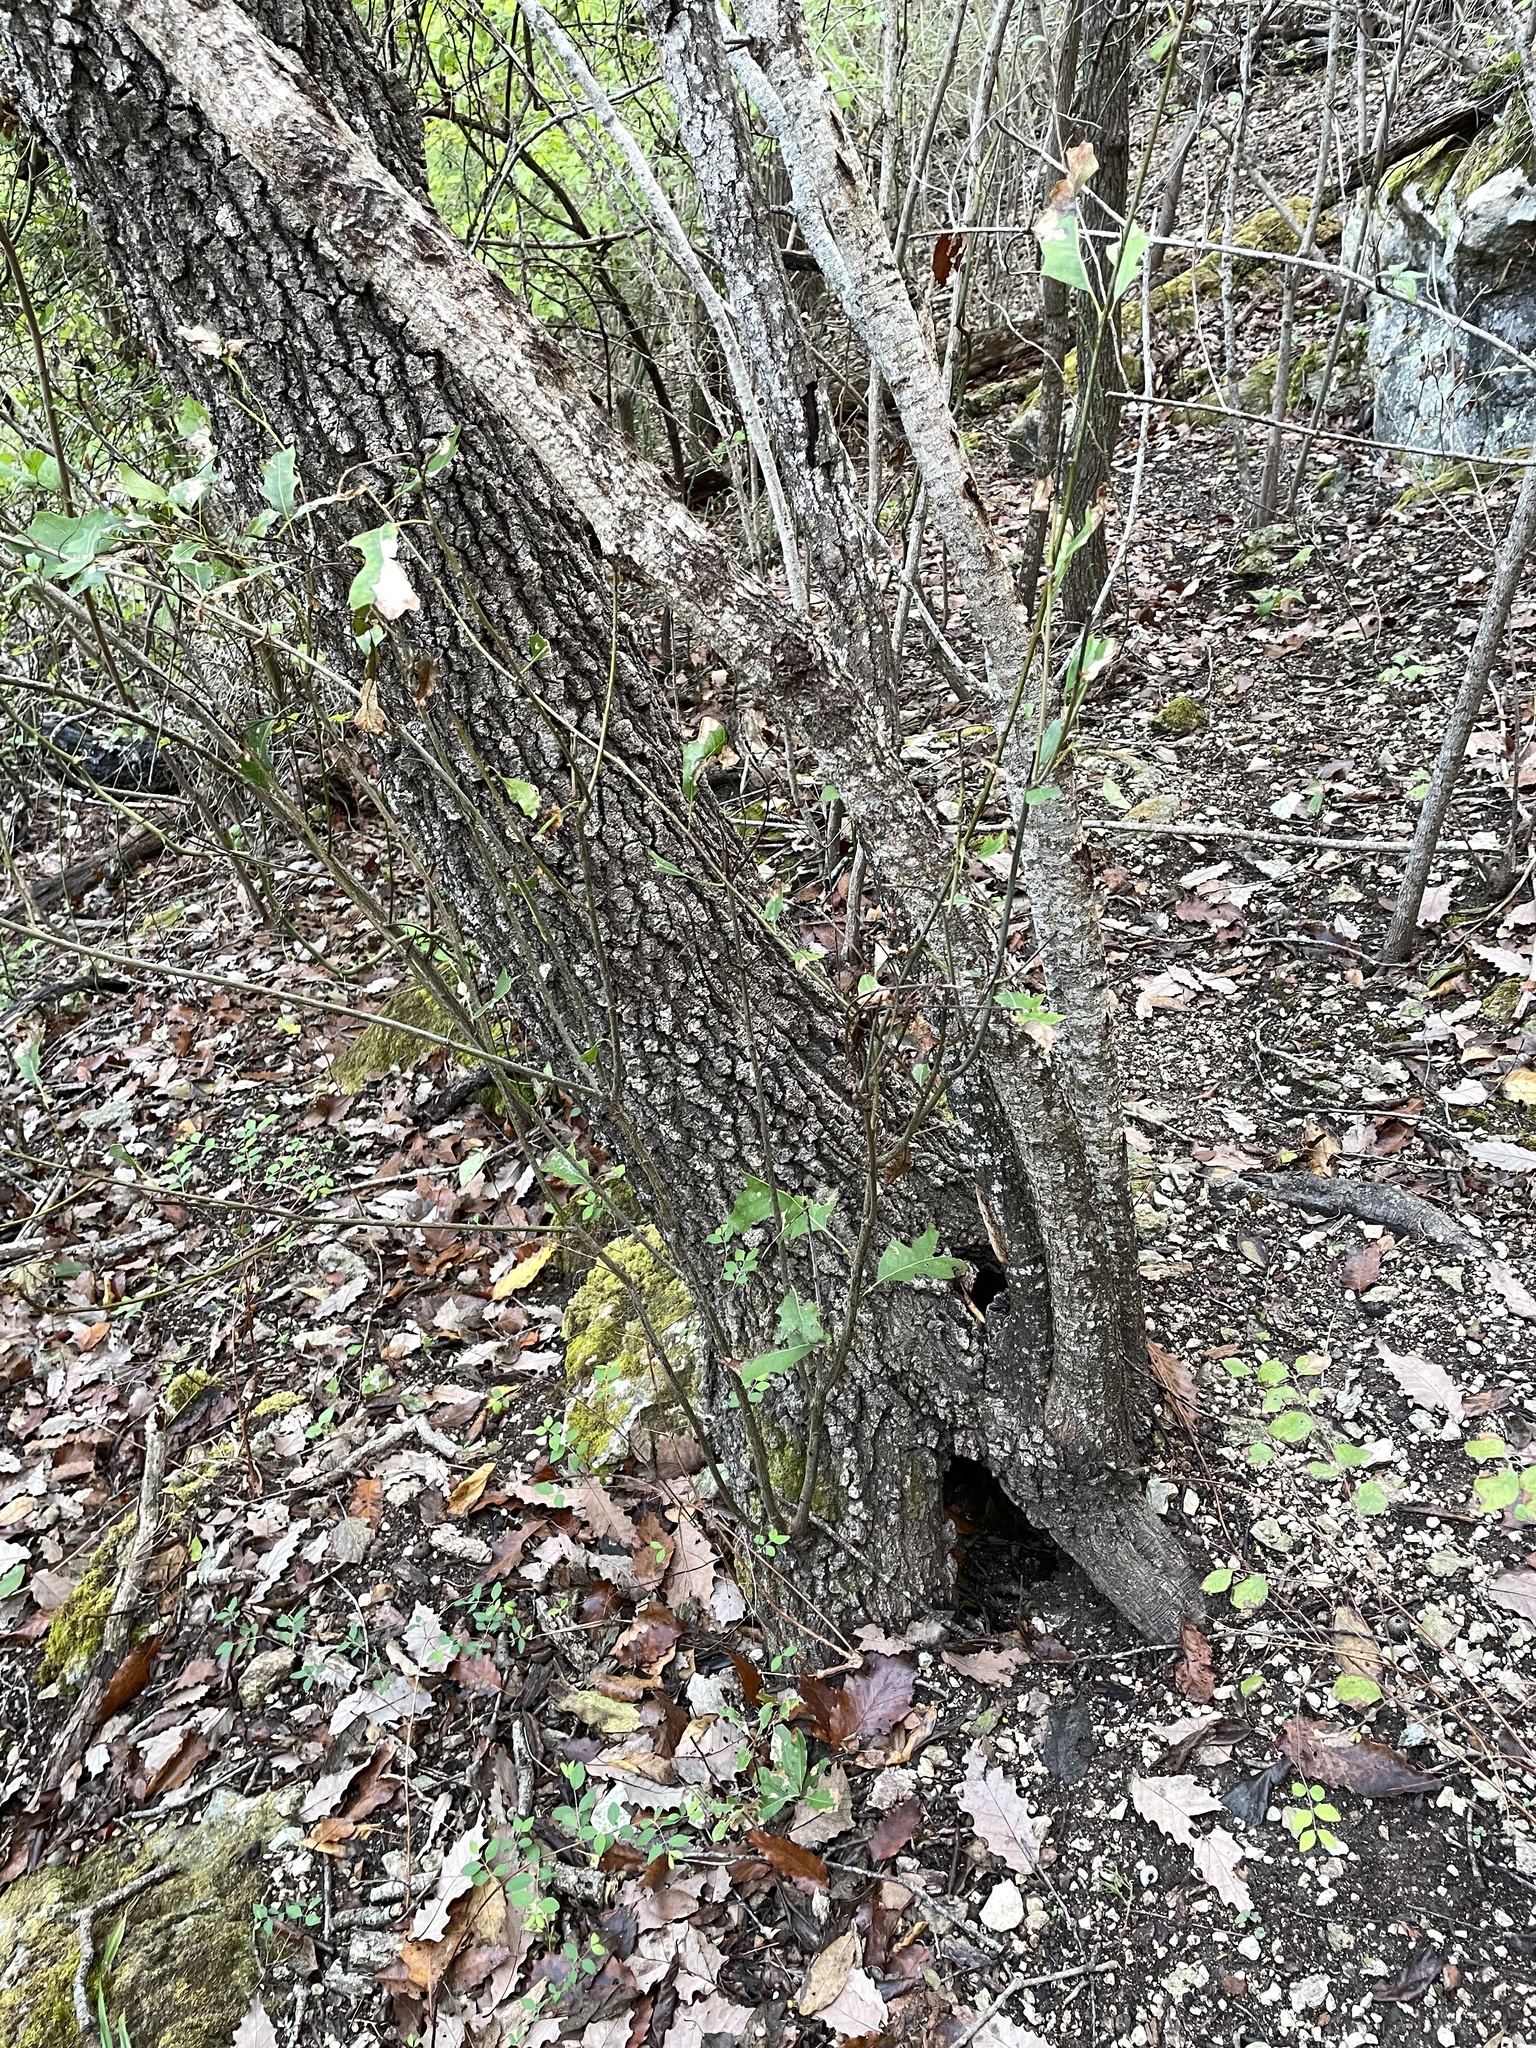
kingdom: Plantae
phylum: Tracheophyta
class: Magnoliopsida
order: Fagales
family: Fagaceae
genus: Quercus
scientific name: Quercus buckleyi
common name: Buckley oak
